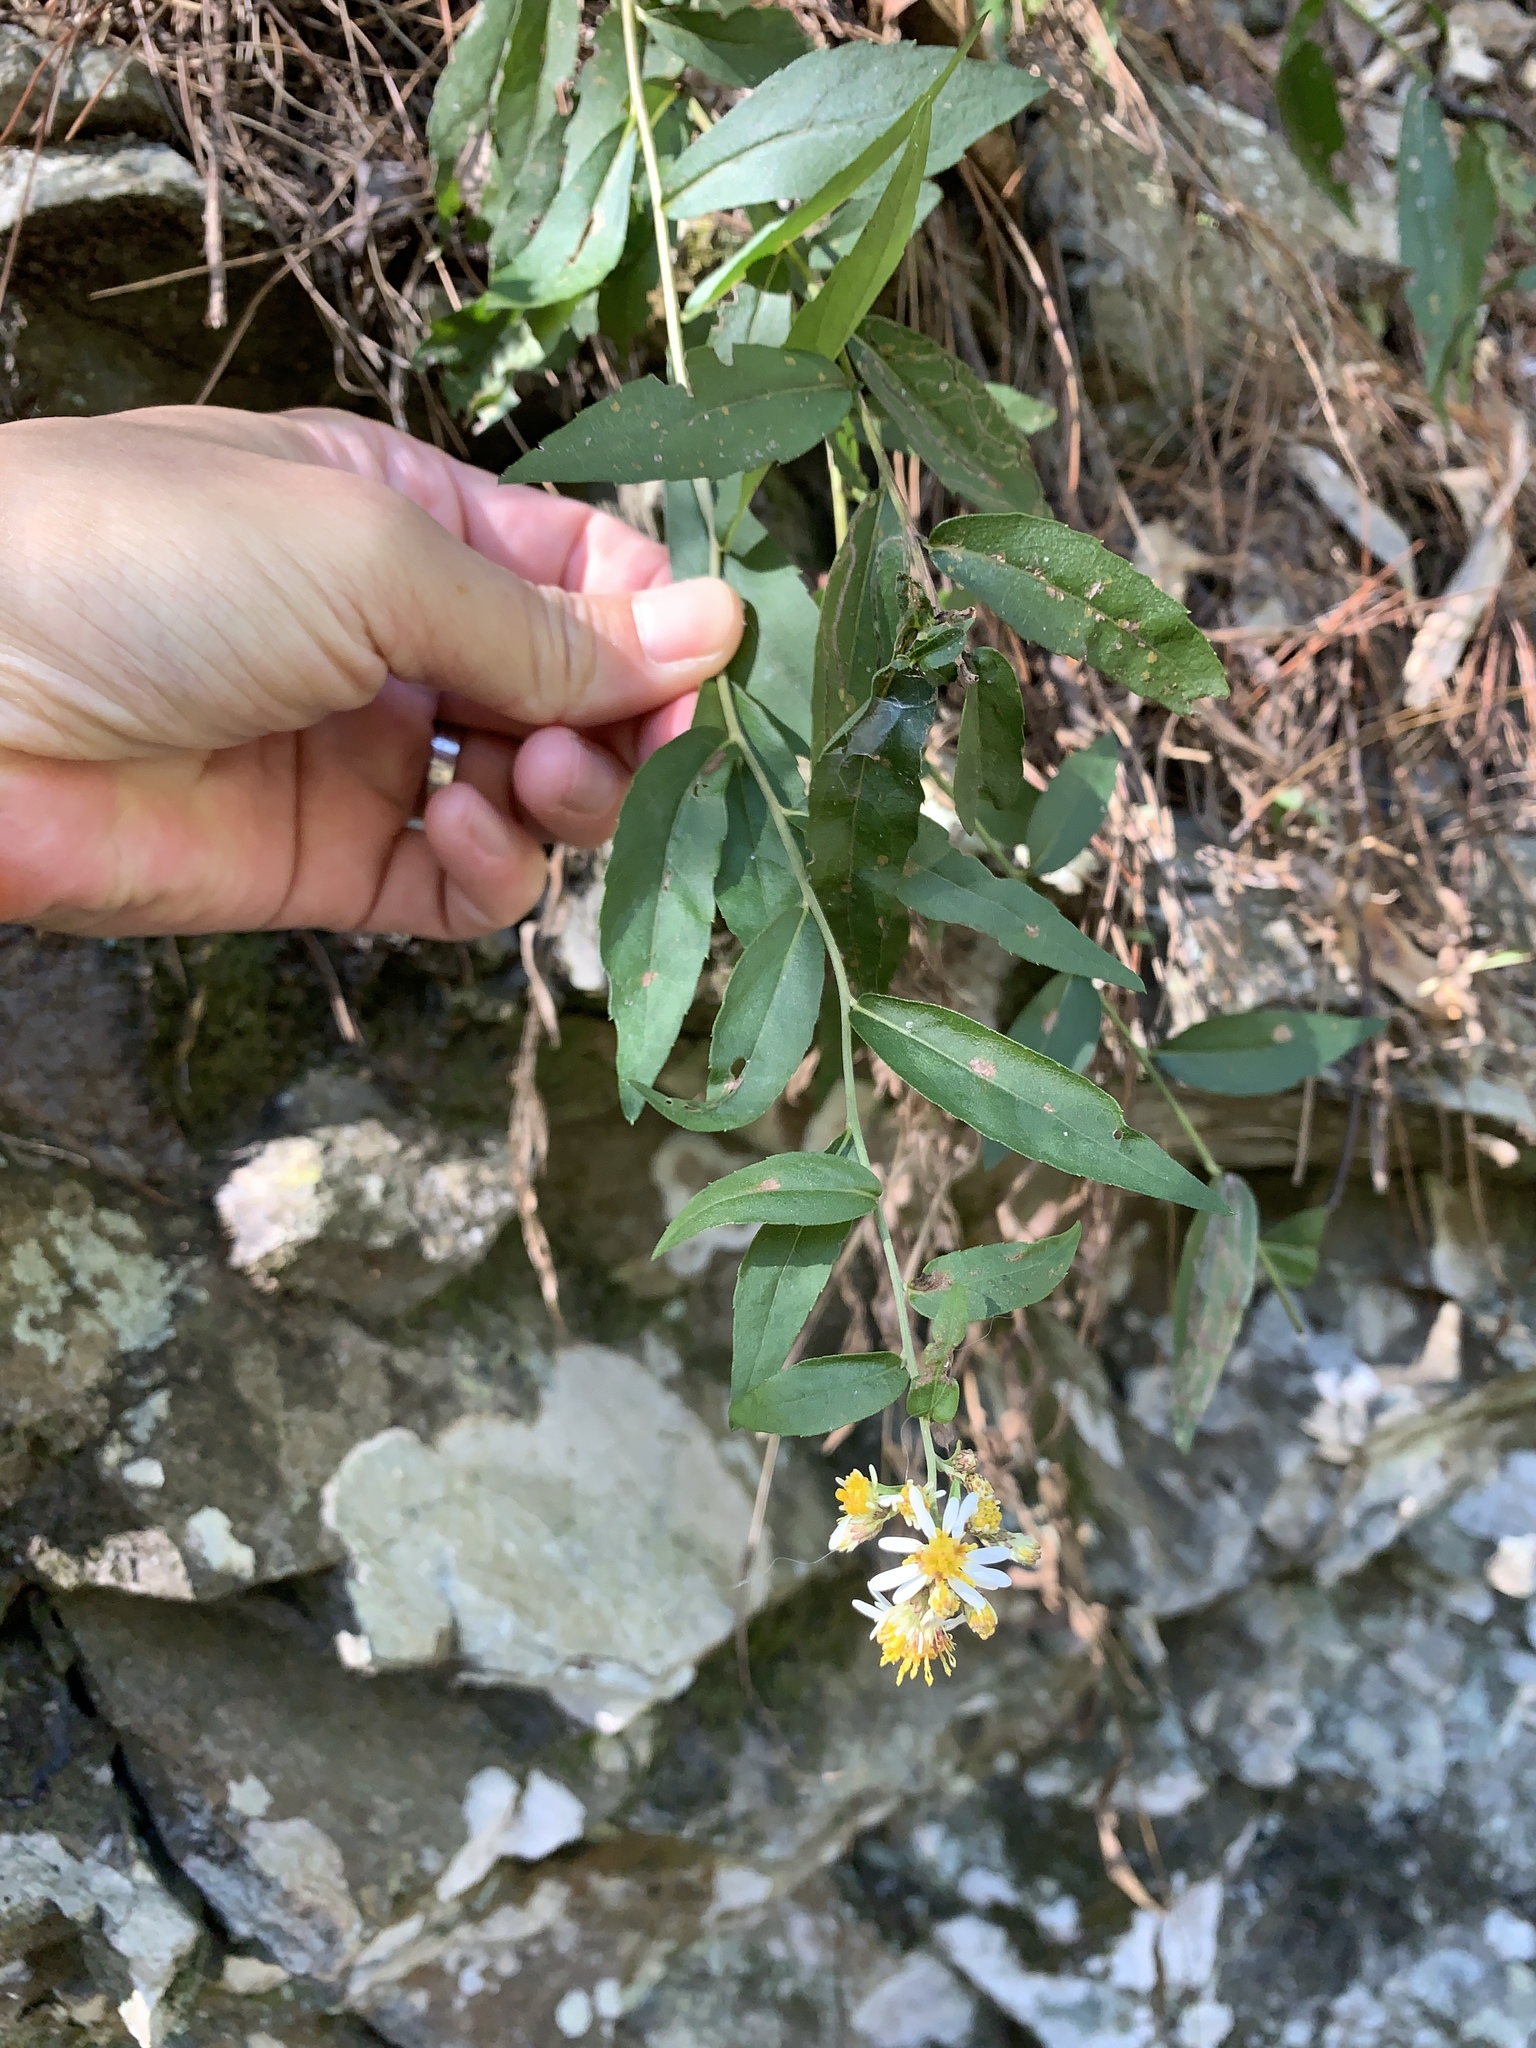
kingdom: Plantae
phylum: Tracheophyta
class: Magnoliopsida
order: Asterales
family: Asteraceae
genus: Aster
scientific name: Aster taiwanensis
